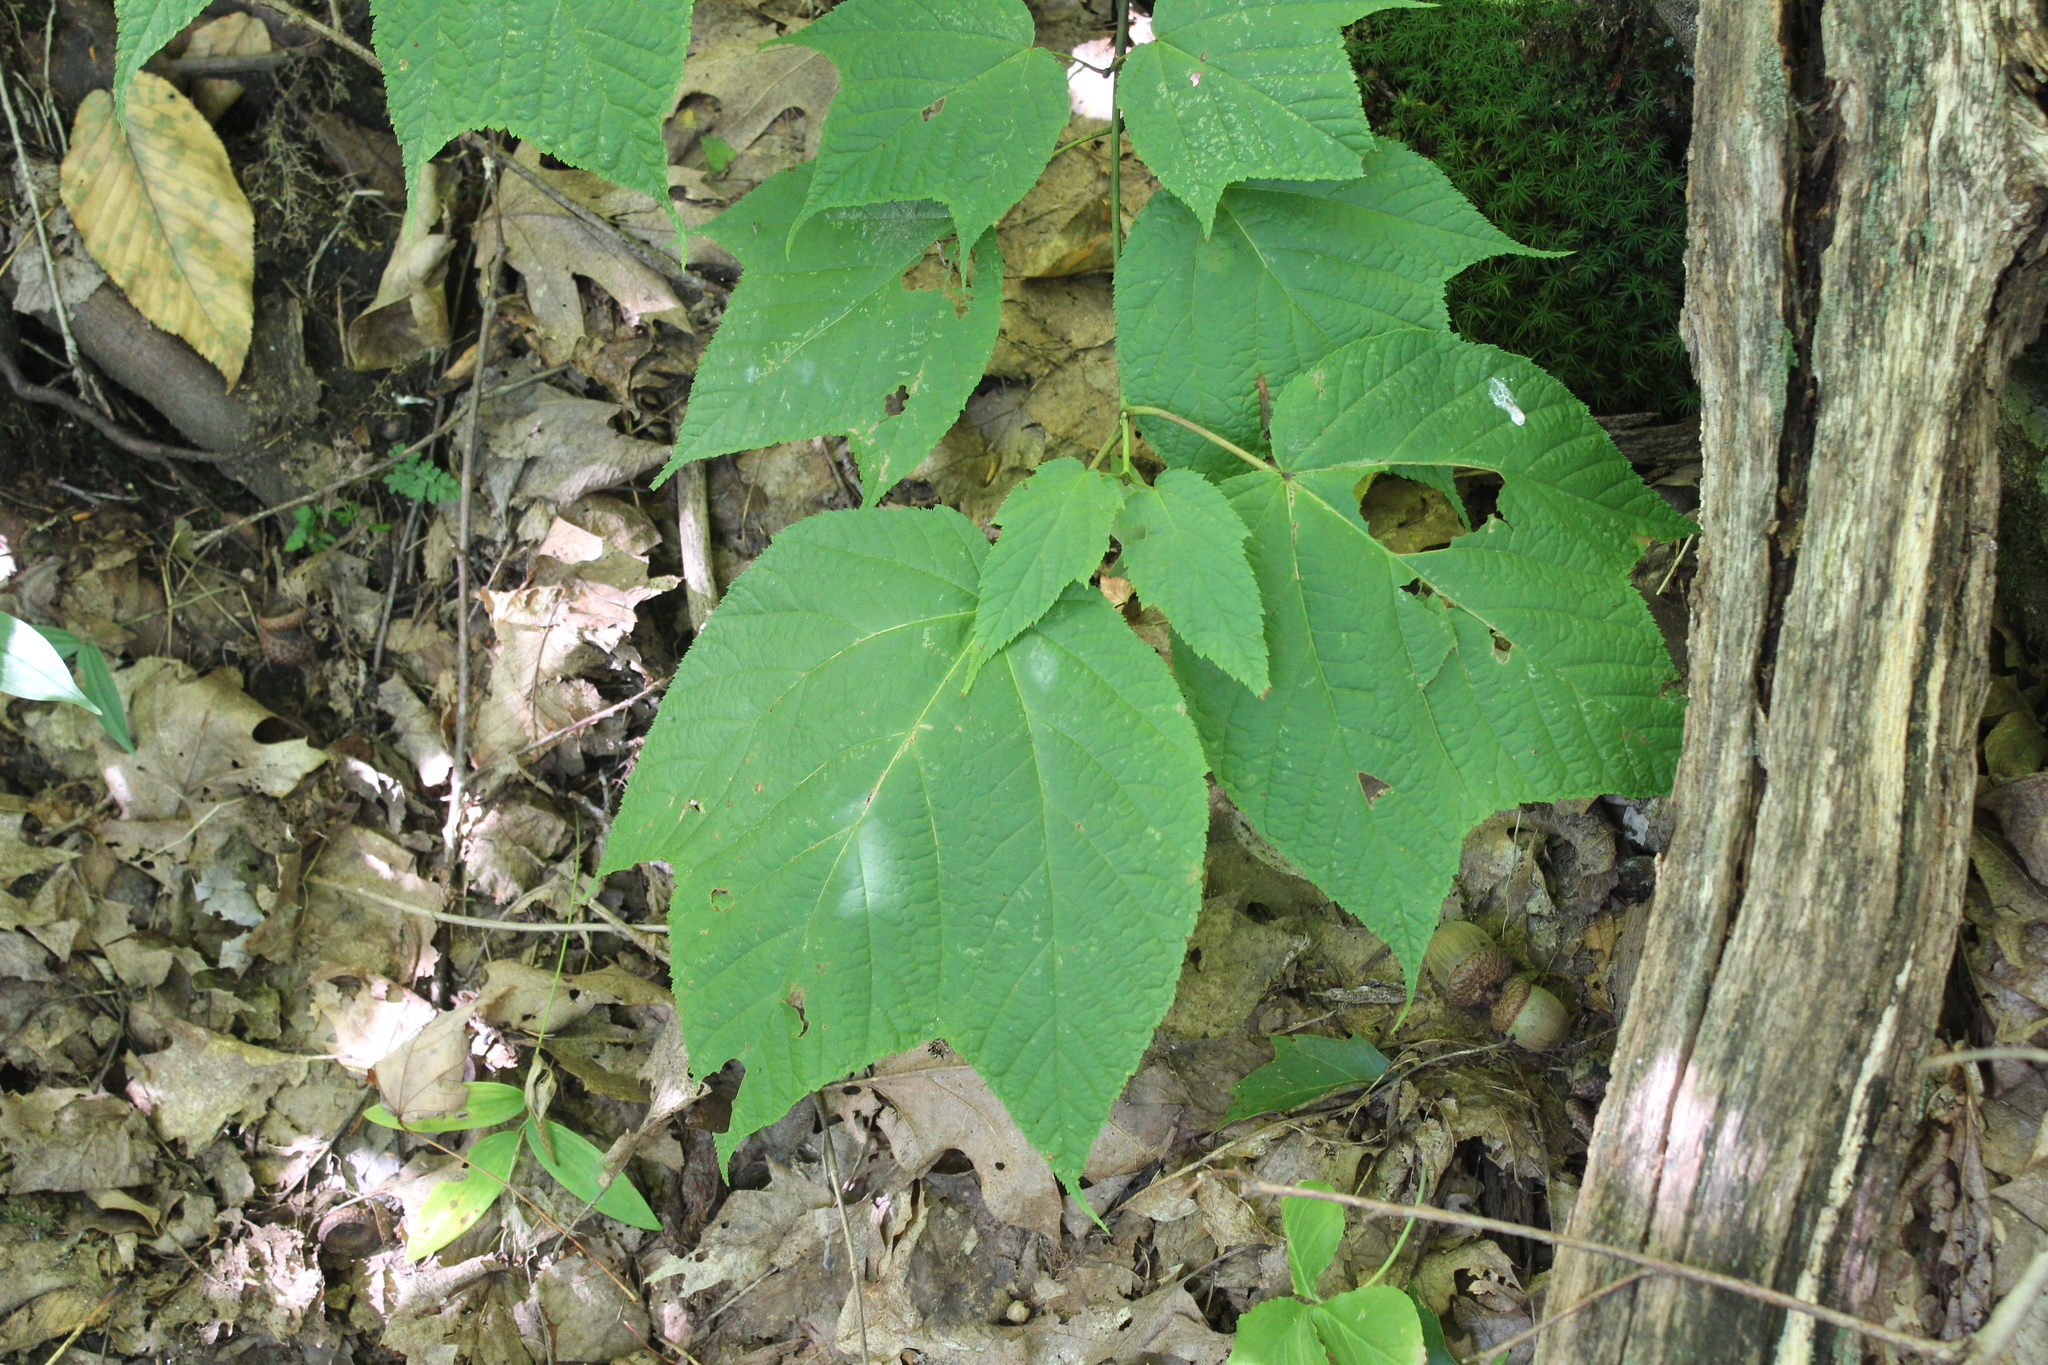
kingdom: Plantae
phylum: Tracheophyta
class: Magnoliopsida
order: Sapindales
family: Sapindaceae
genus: Acer
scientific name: Acer pensylvanicum
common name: Moosewood
